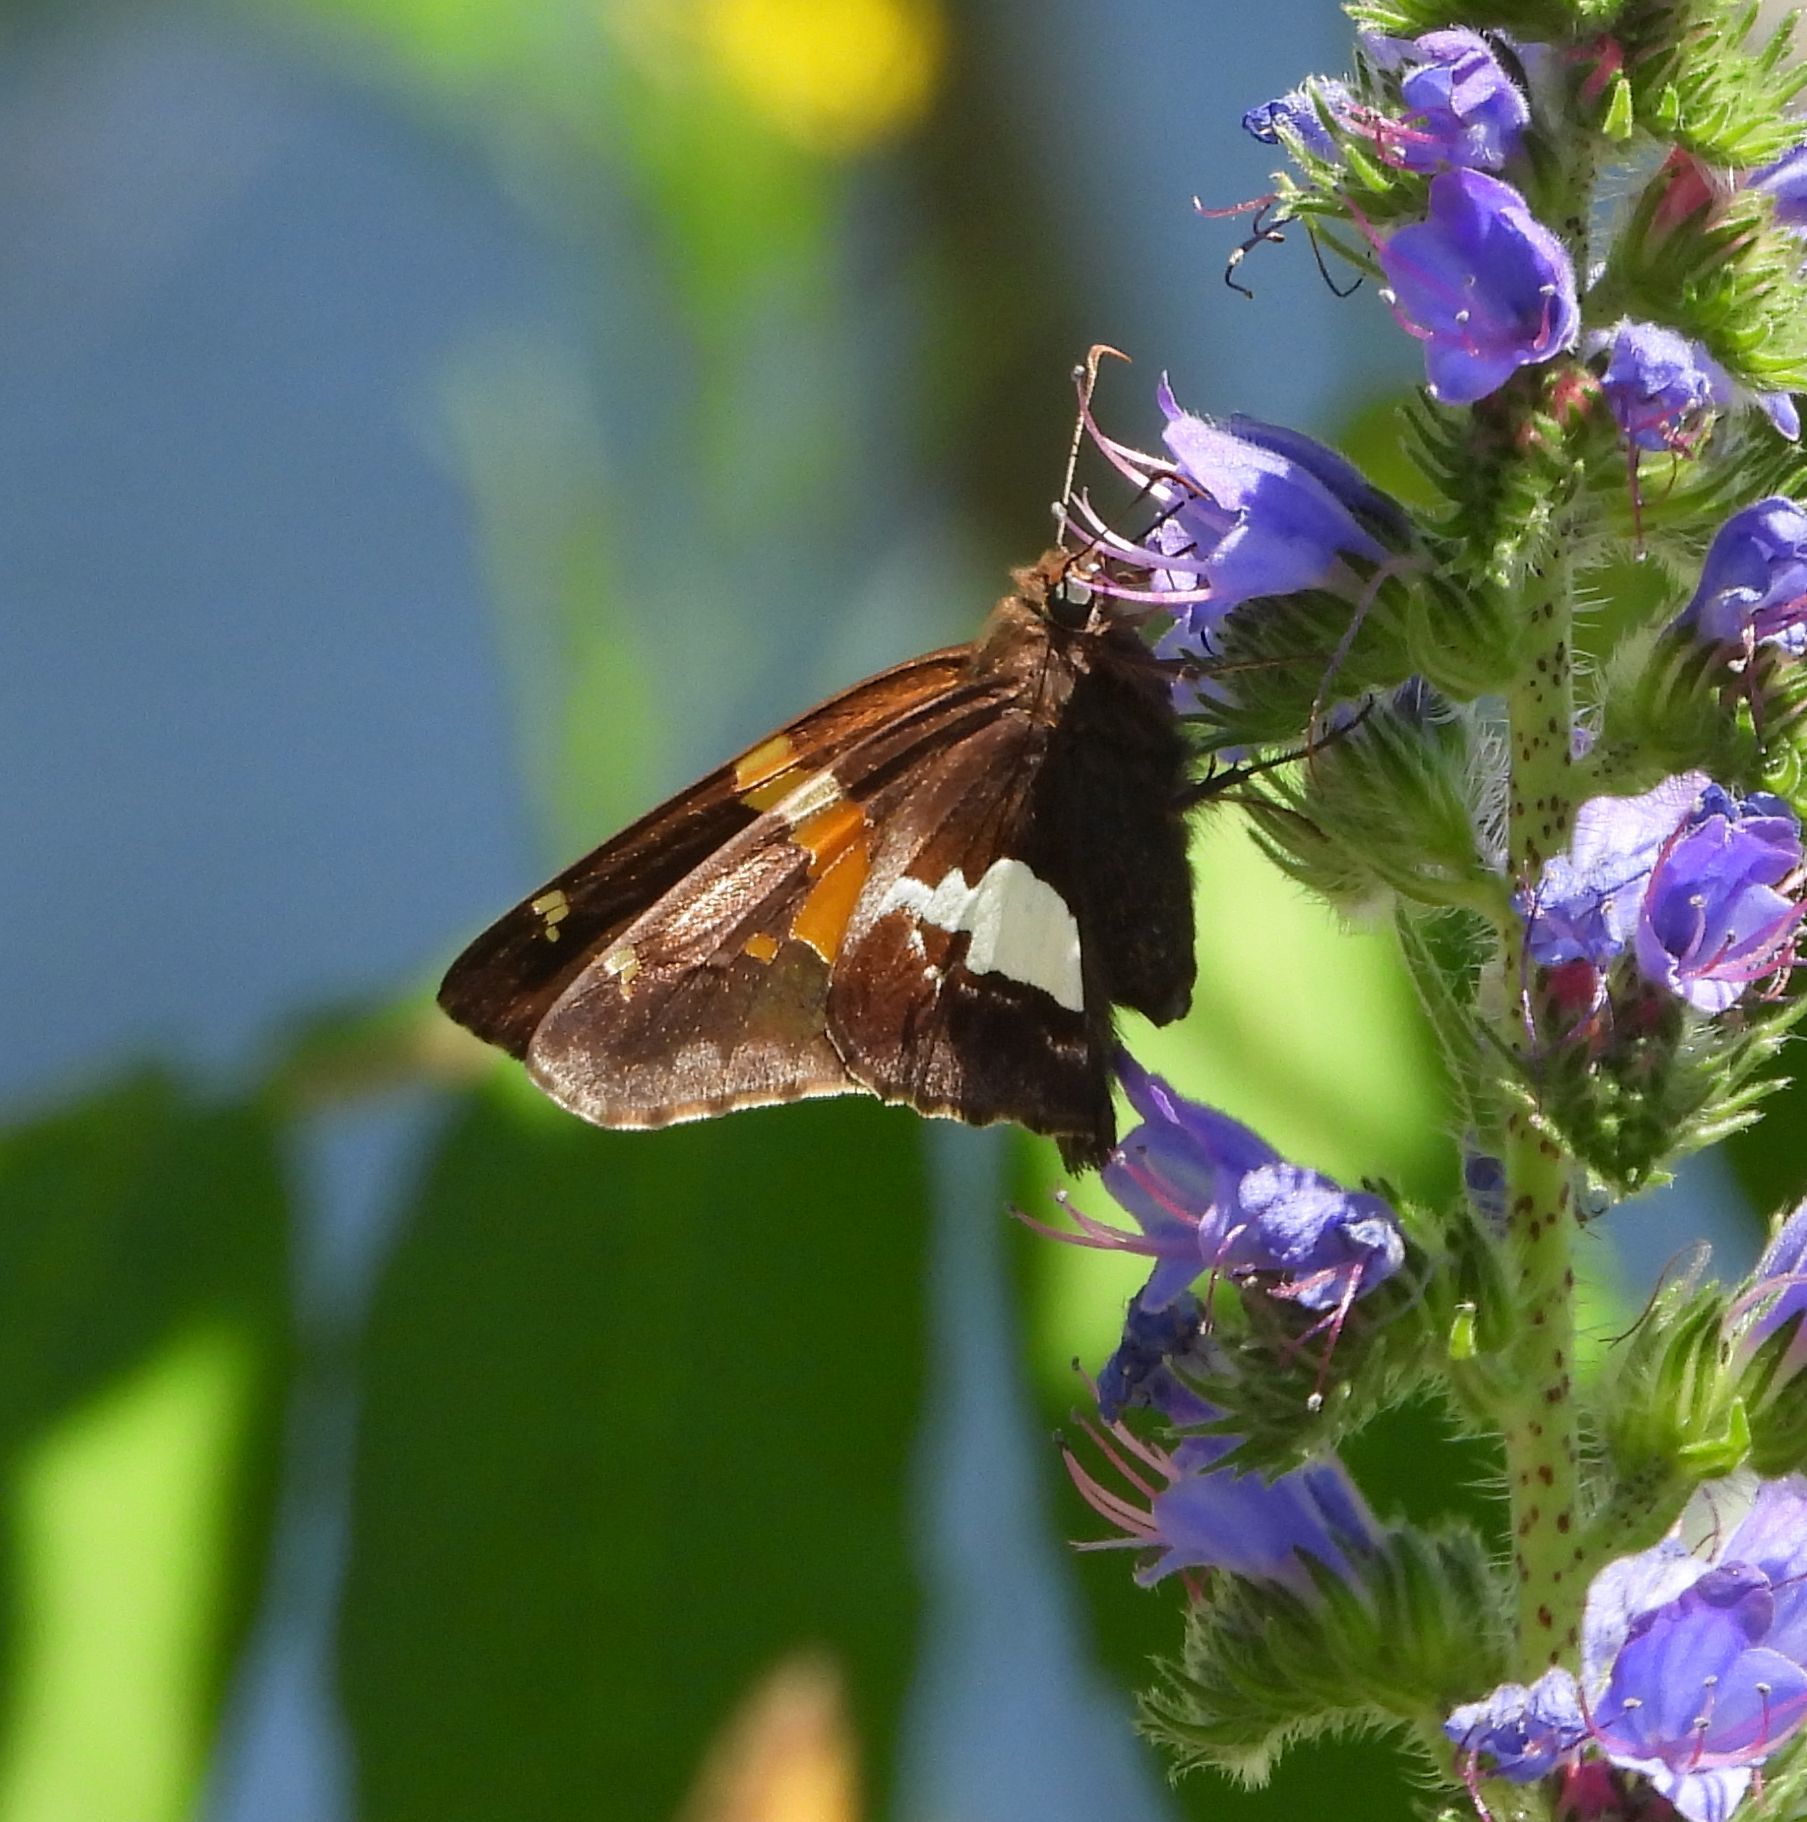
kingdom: Animalia
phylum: Arthropoda
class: Insecta
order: Lepidoptera
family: Hesperiidae
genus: Epargyreus
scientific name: Epargyreus clarus
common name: Silver-spotted skipper
